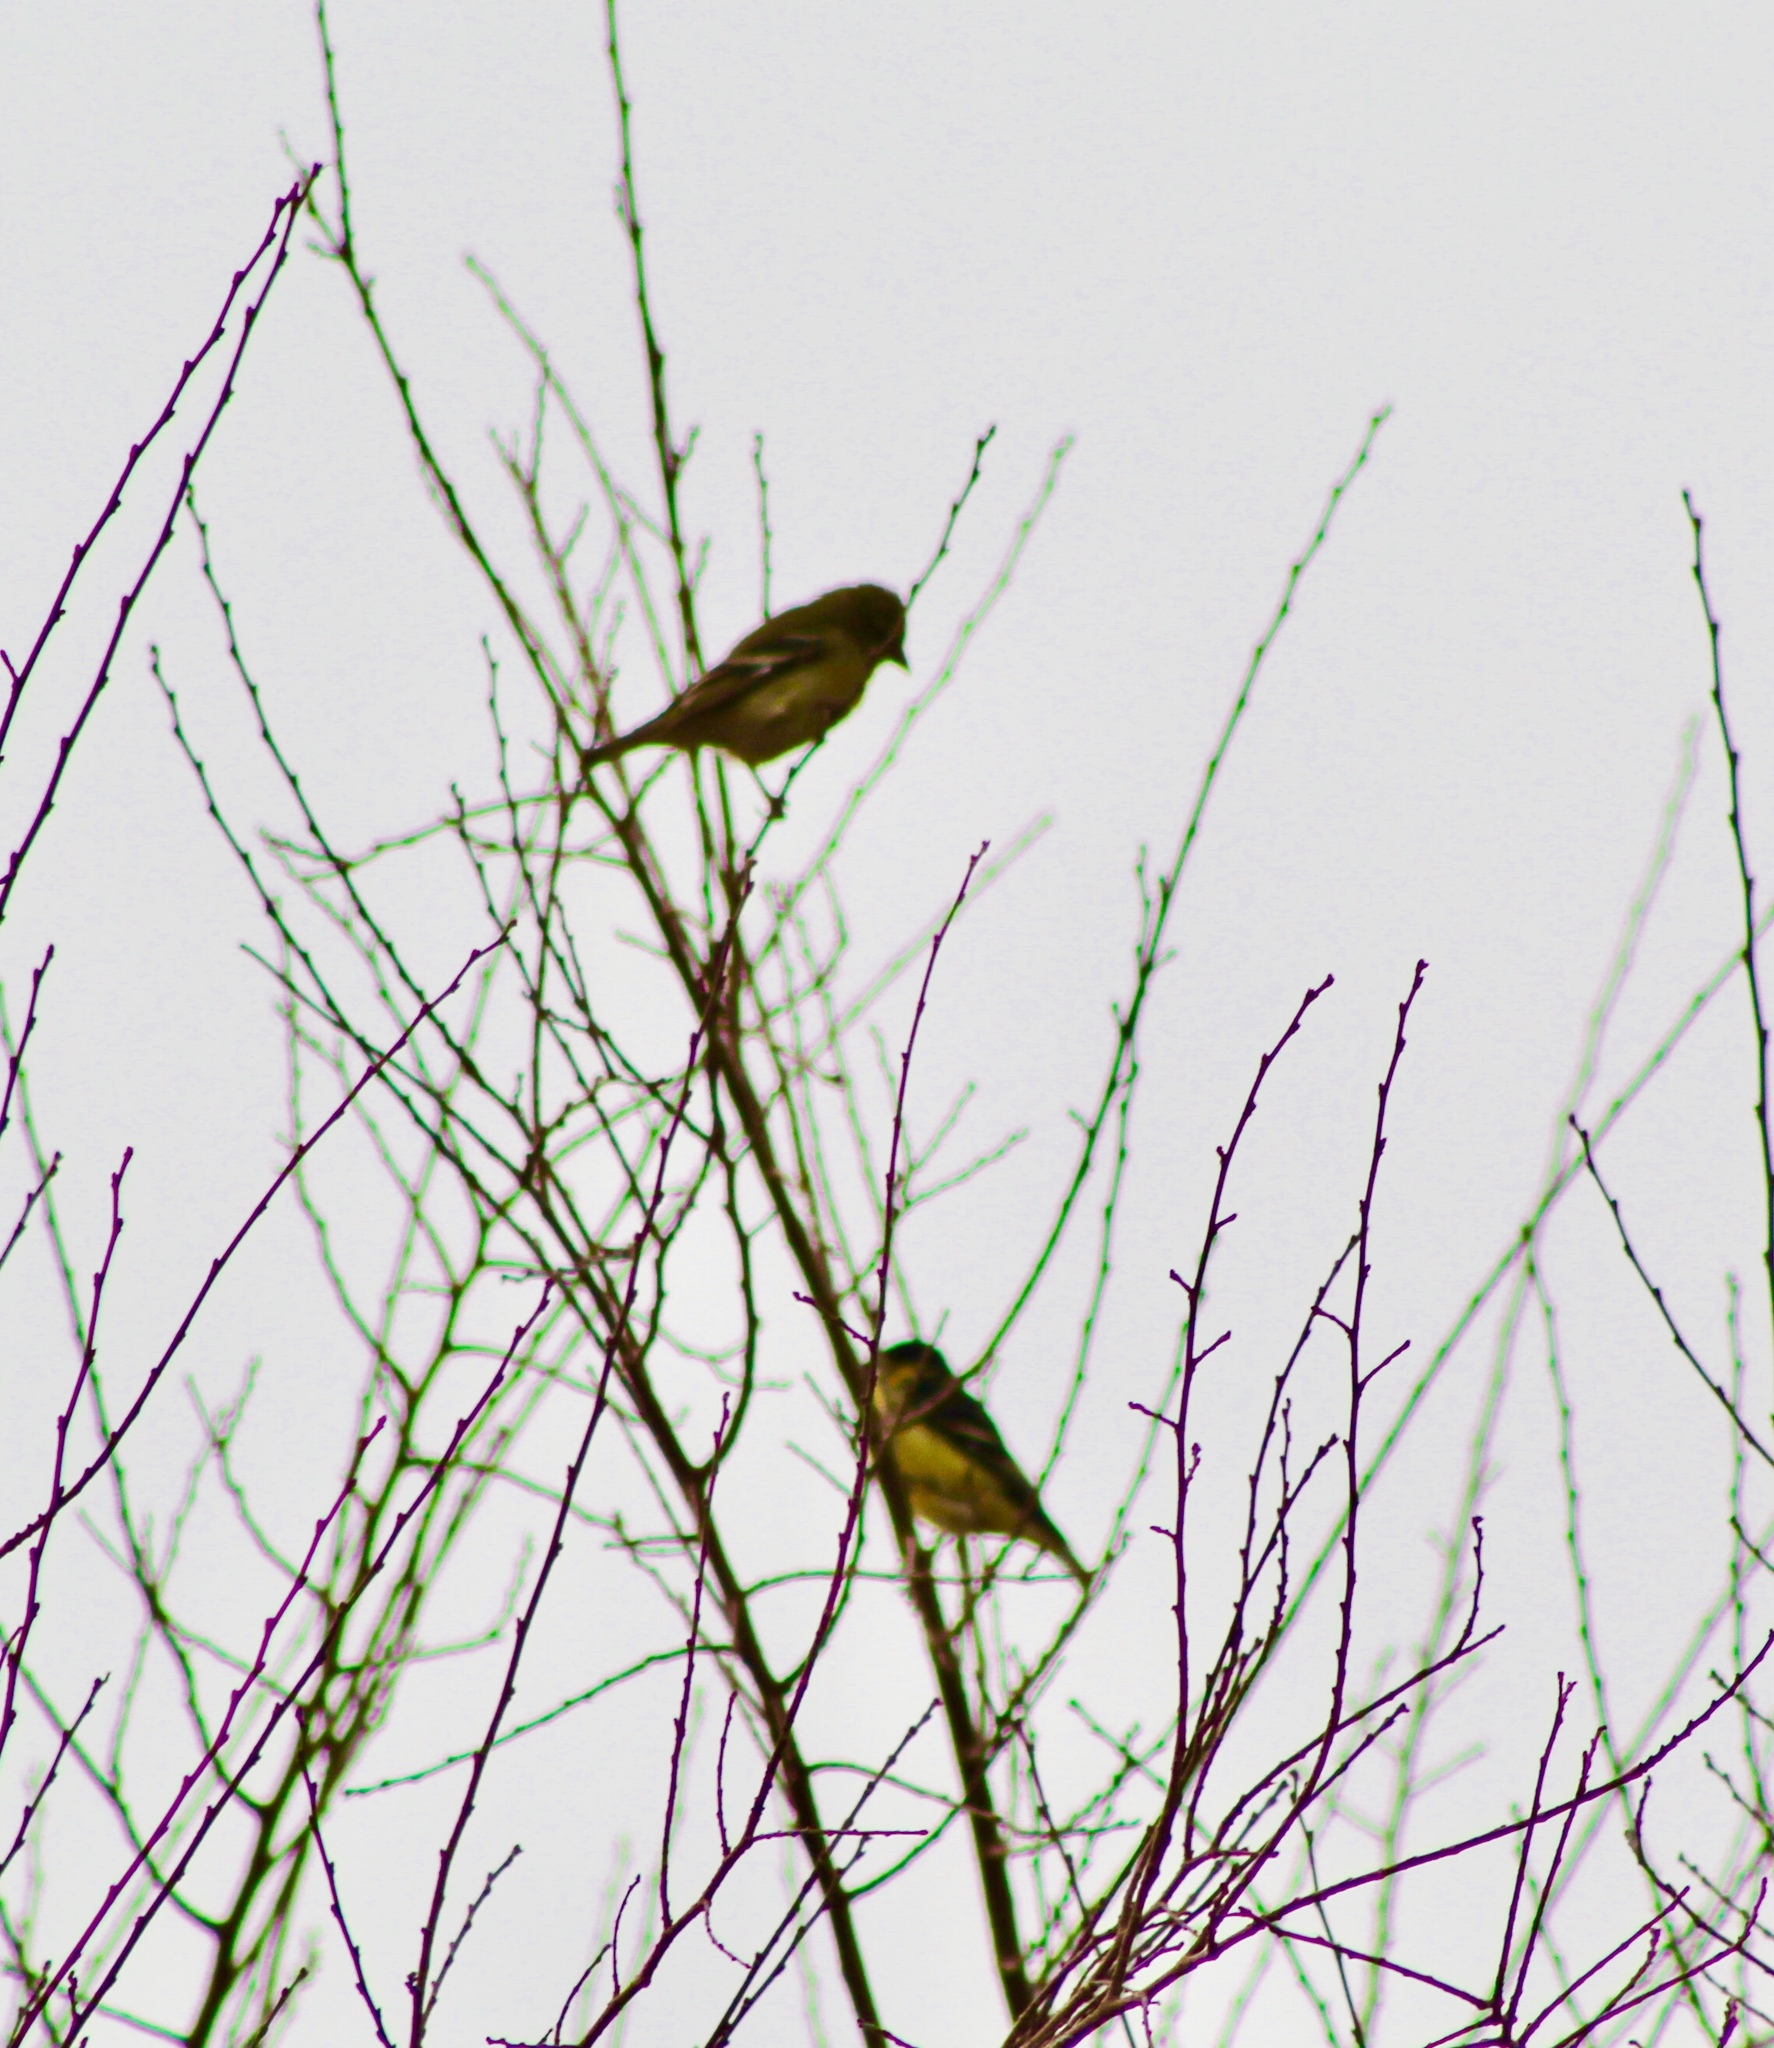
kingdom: Animalia
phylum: Chordata
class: Aves
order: Passeriformes
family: Fringillidae
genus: Spinus
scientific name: Spinus psaltria
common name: Lesser goldfinch
